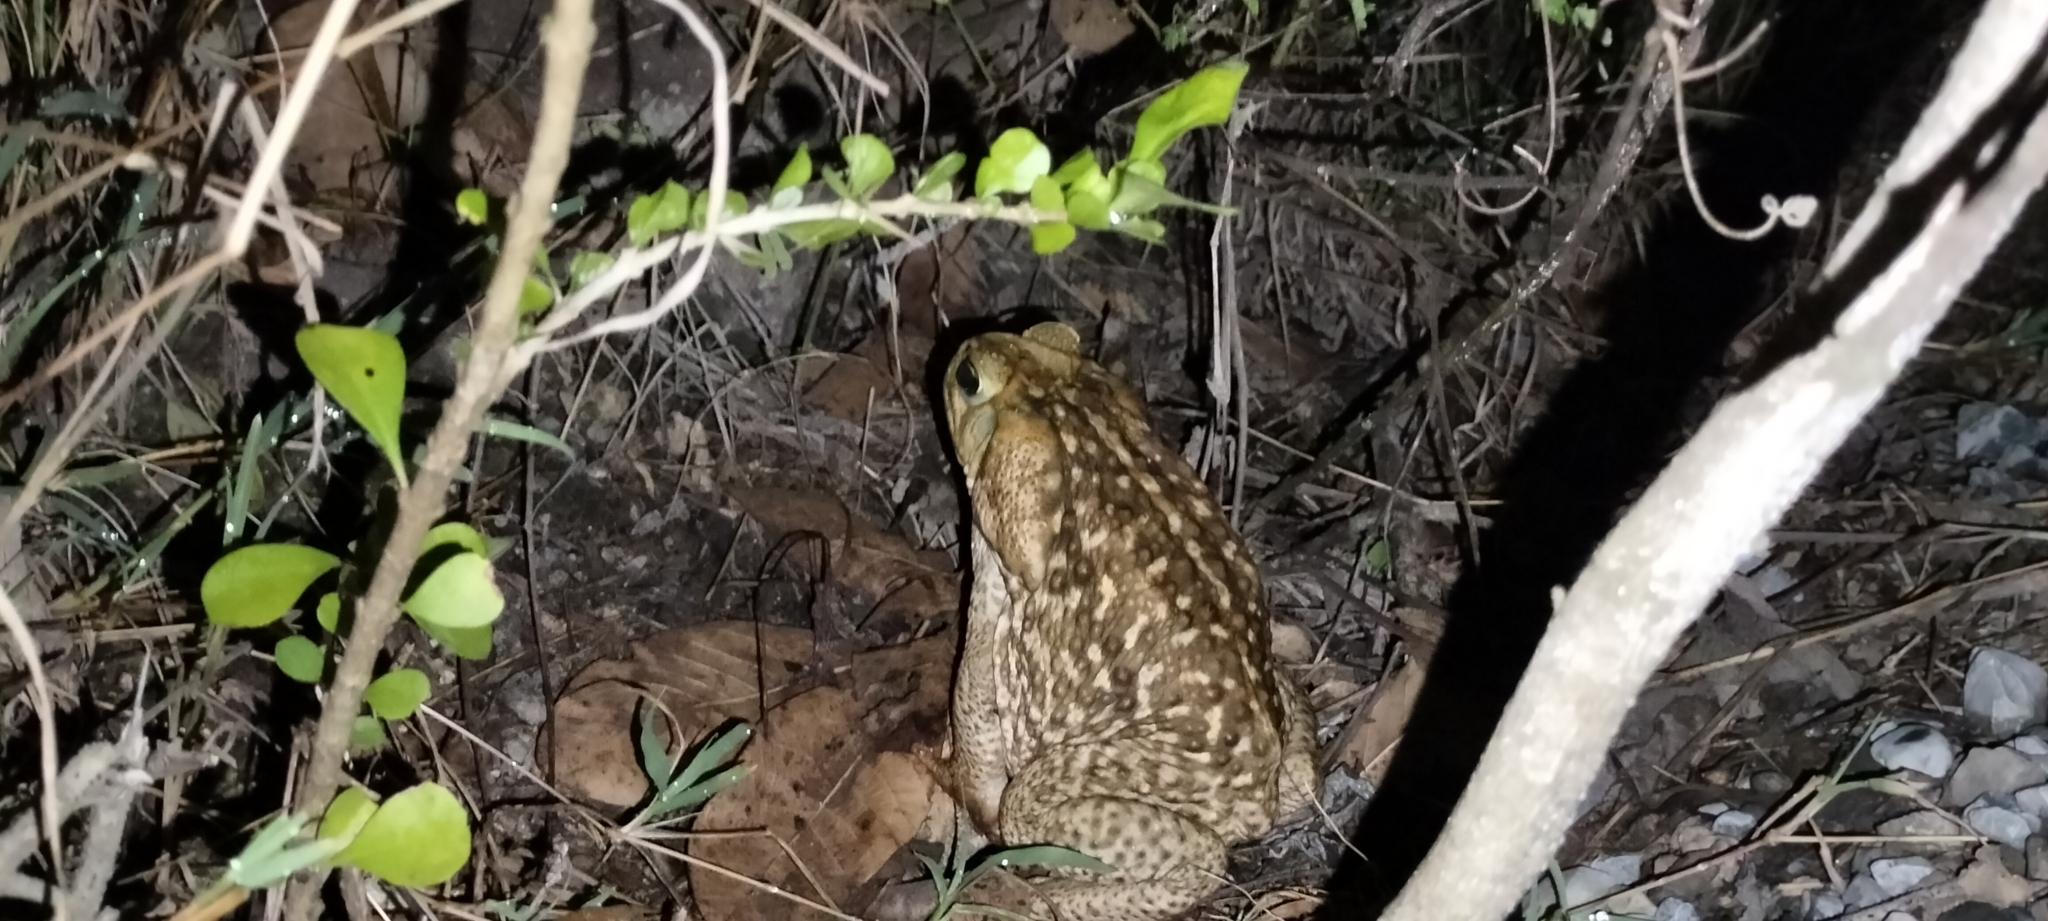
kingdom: Animalia
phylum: Chordata
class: Amphibia
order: Anura
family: Bufonidae
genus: Rhinella
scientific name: Rhinella horribilis
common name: Mesoamerican cane toad
